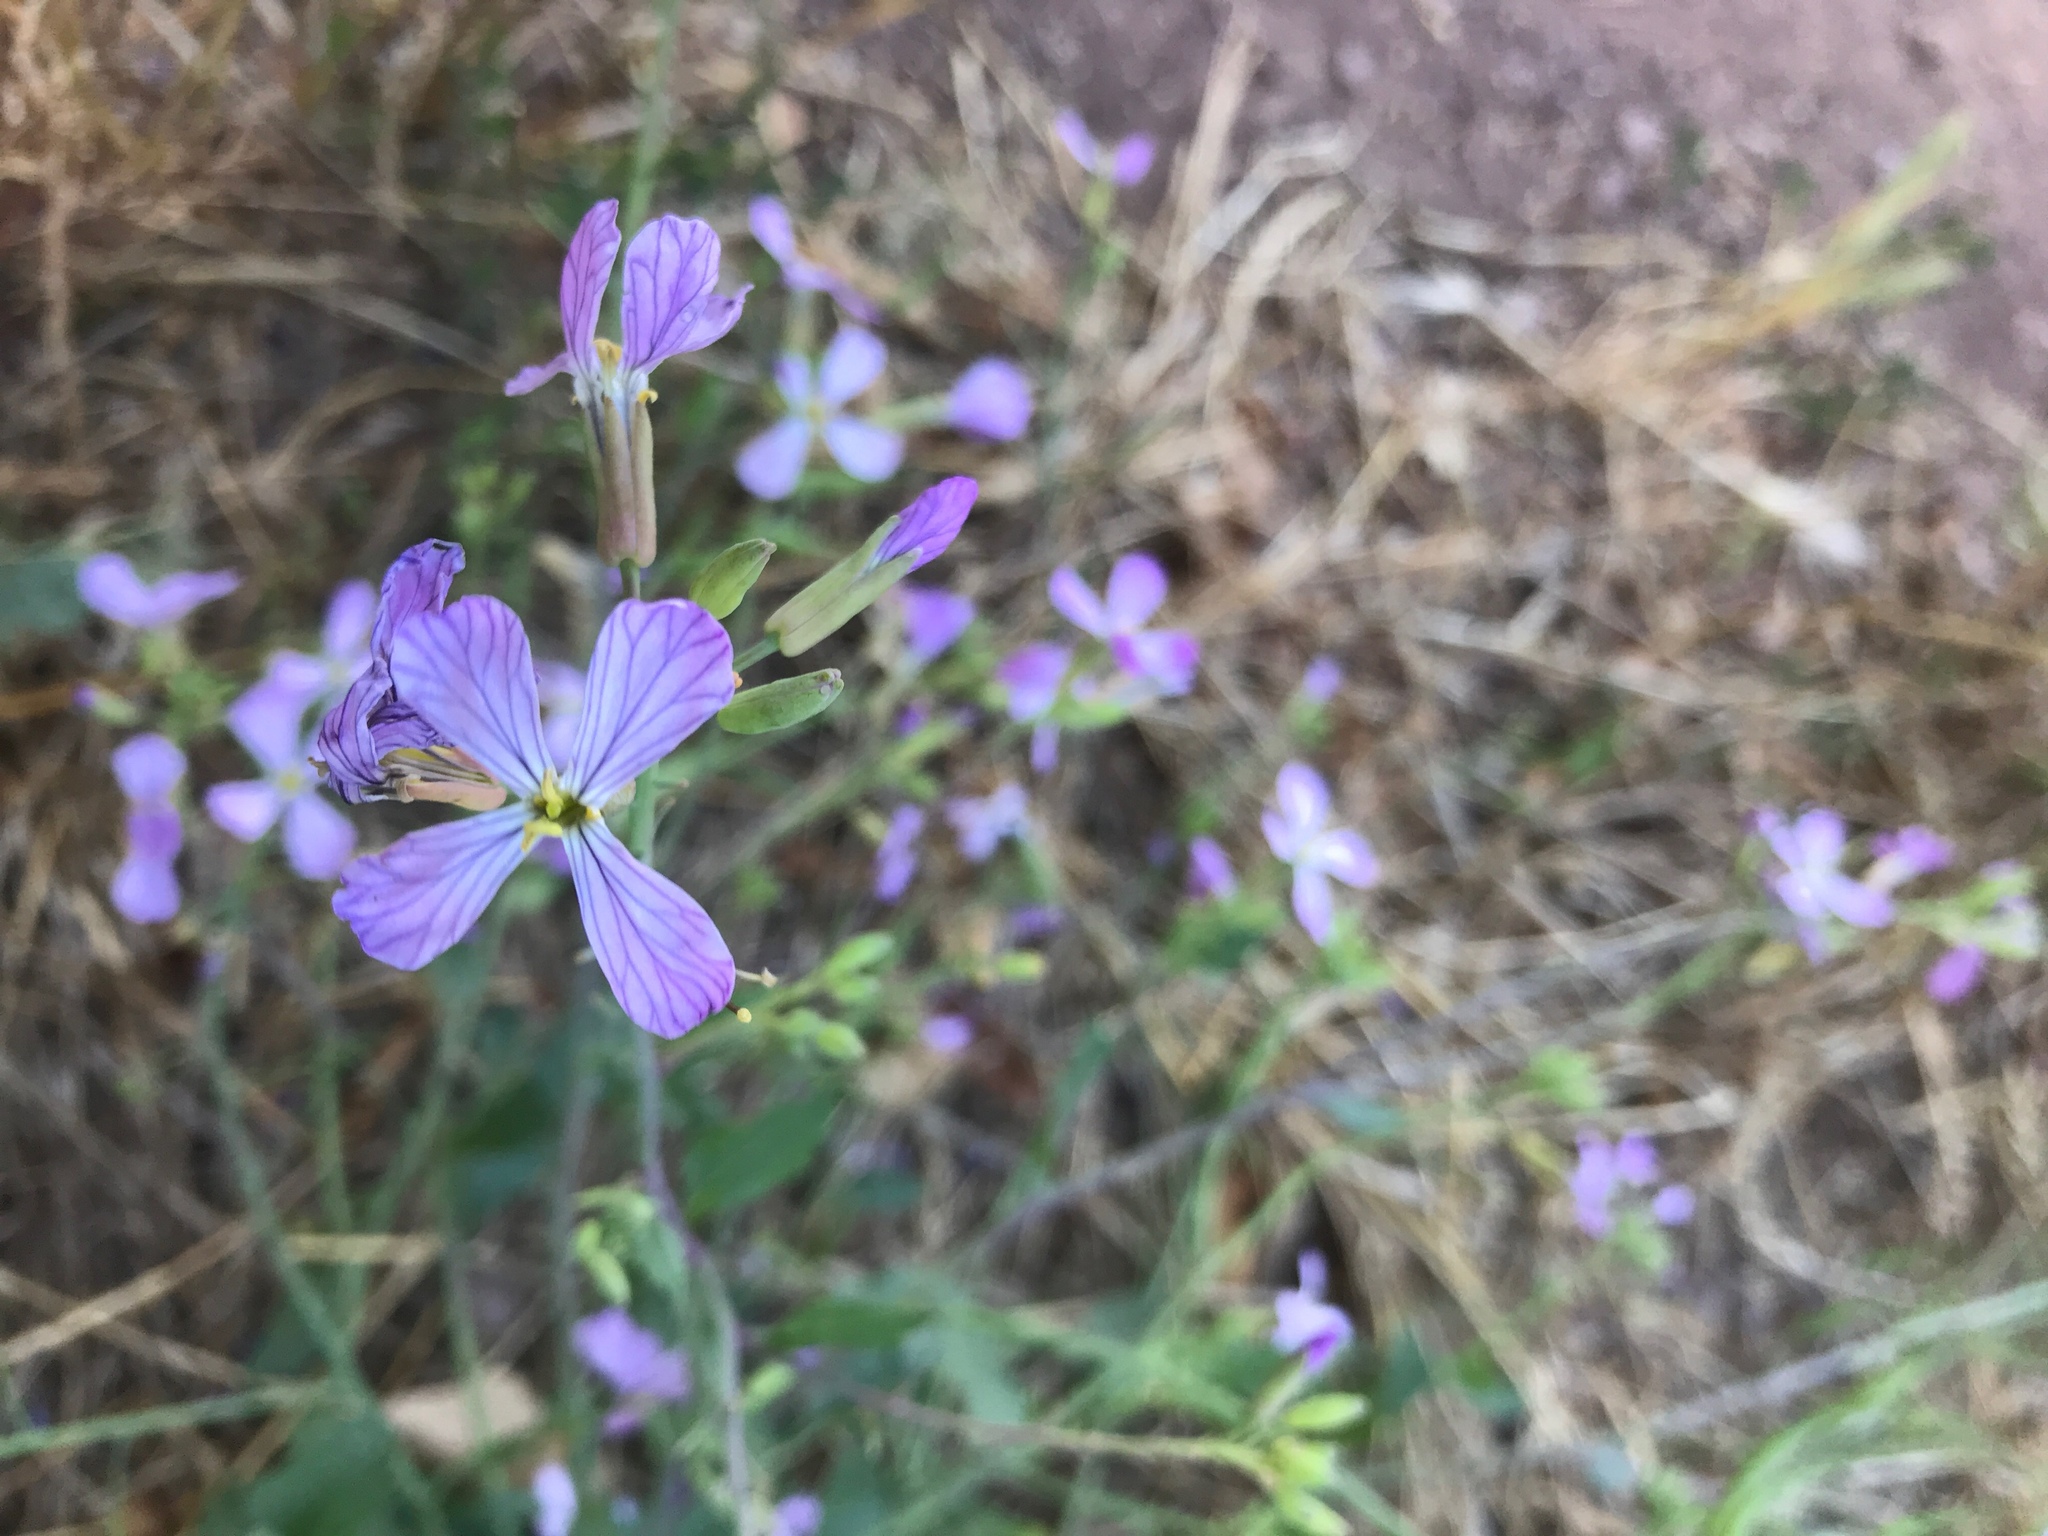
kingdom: Plantae
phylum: Tracheophyta
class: Magnoliopsida
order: Brassicales
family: Brassicaceae
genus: Raphanus
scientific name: Raphanus sativus
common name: Cultivated radish
